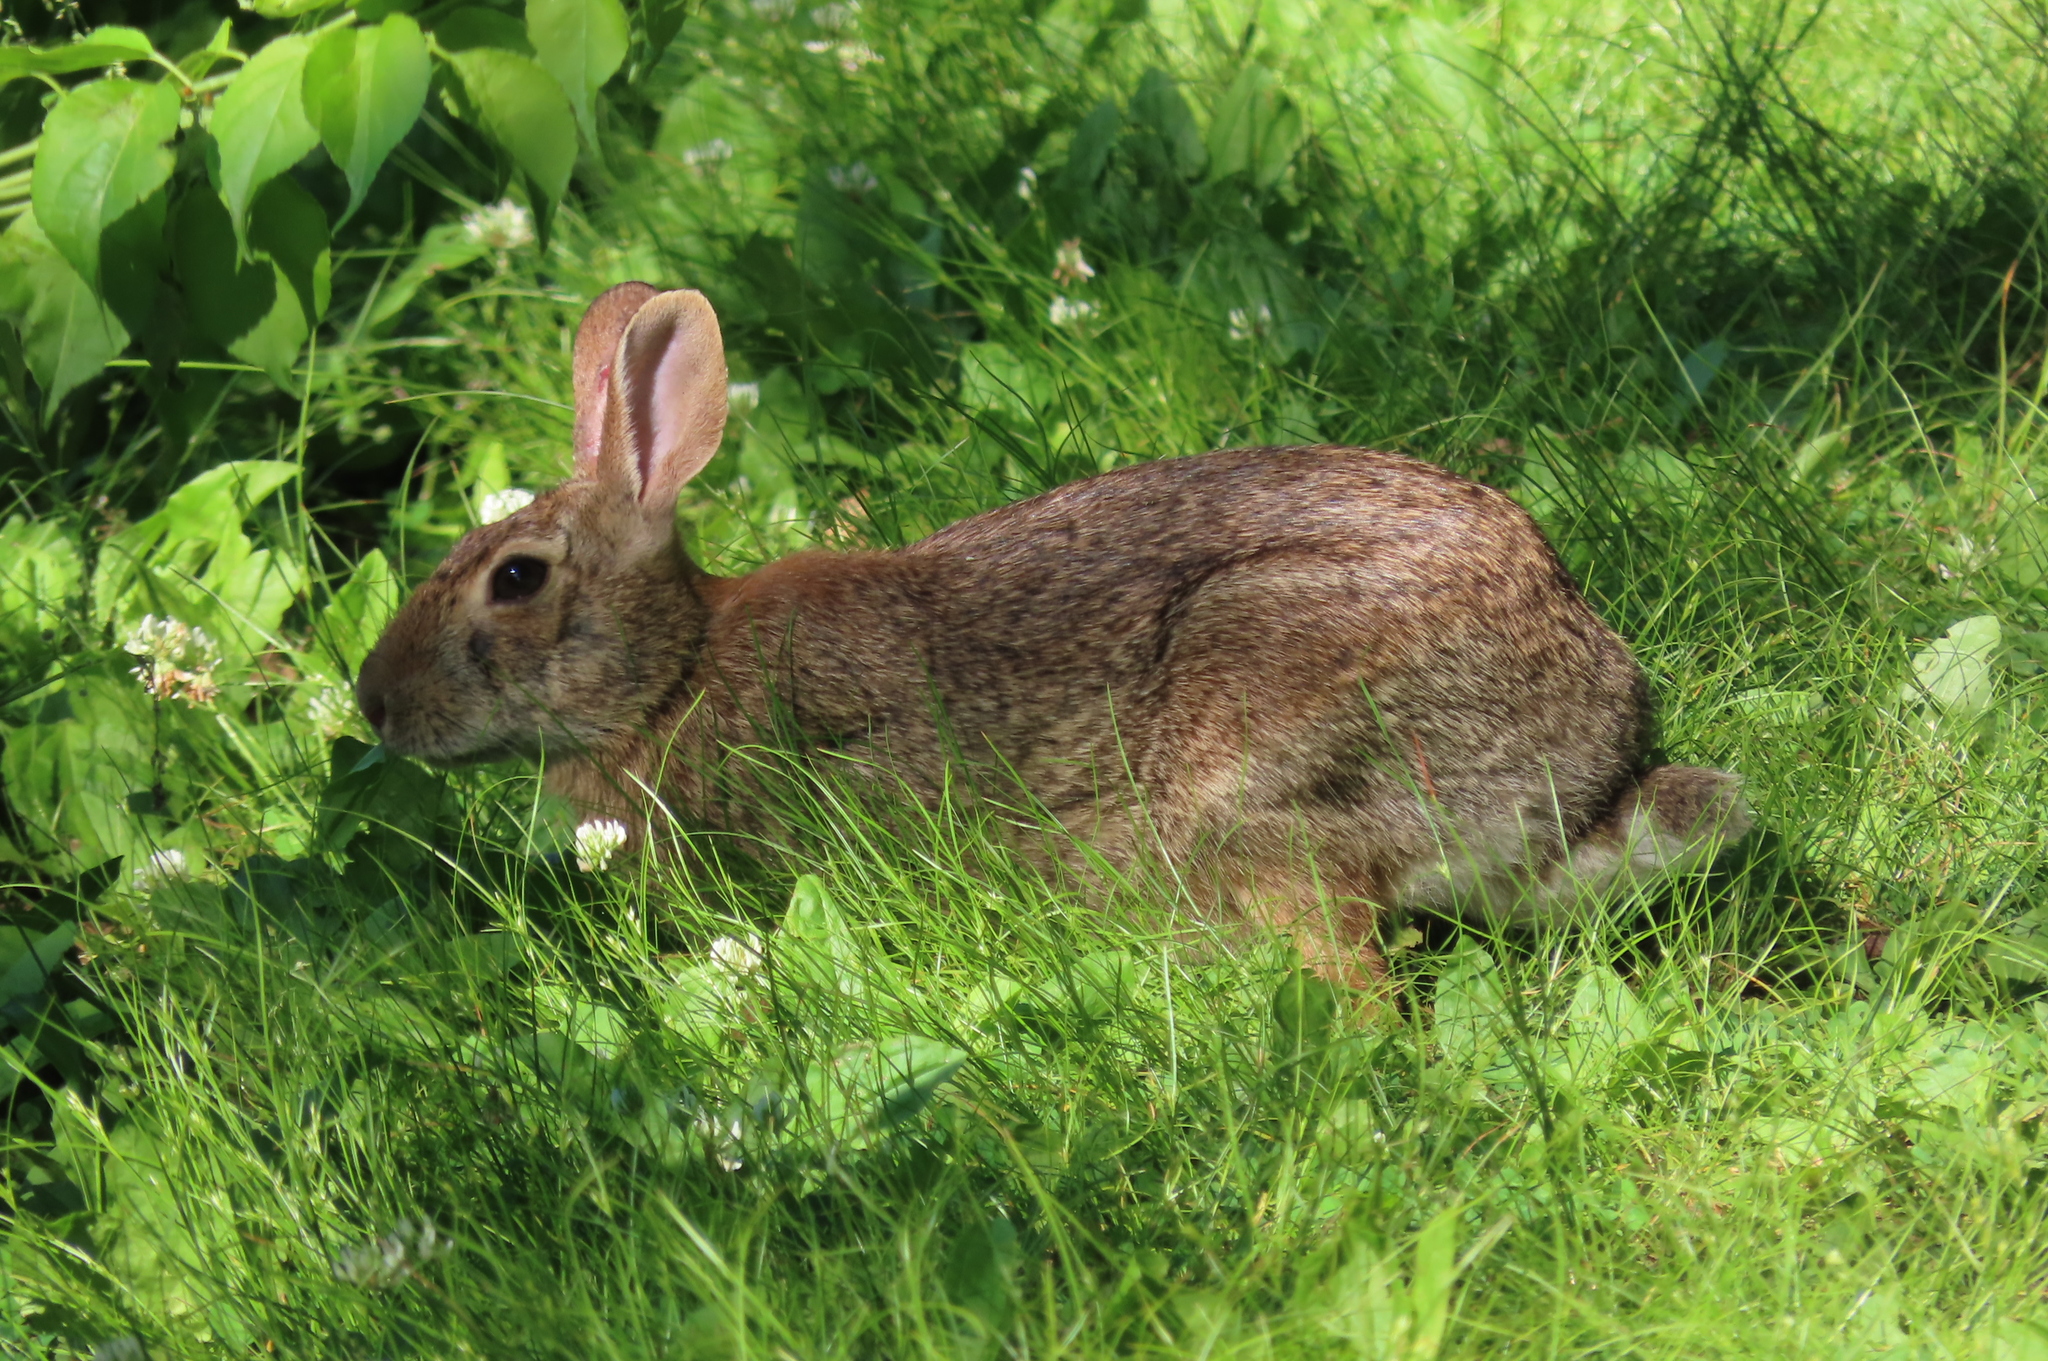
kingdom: Animalia
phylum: Chordata
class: Mammalia
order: Lagomorpha
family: Leporidae
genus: Sylvilagus
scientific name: Sylvilagus floridanus
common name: Eastern cottontail
